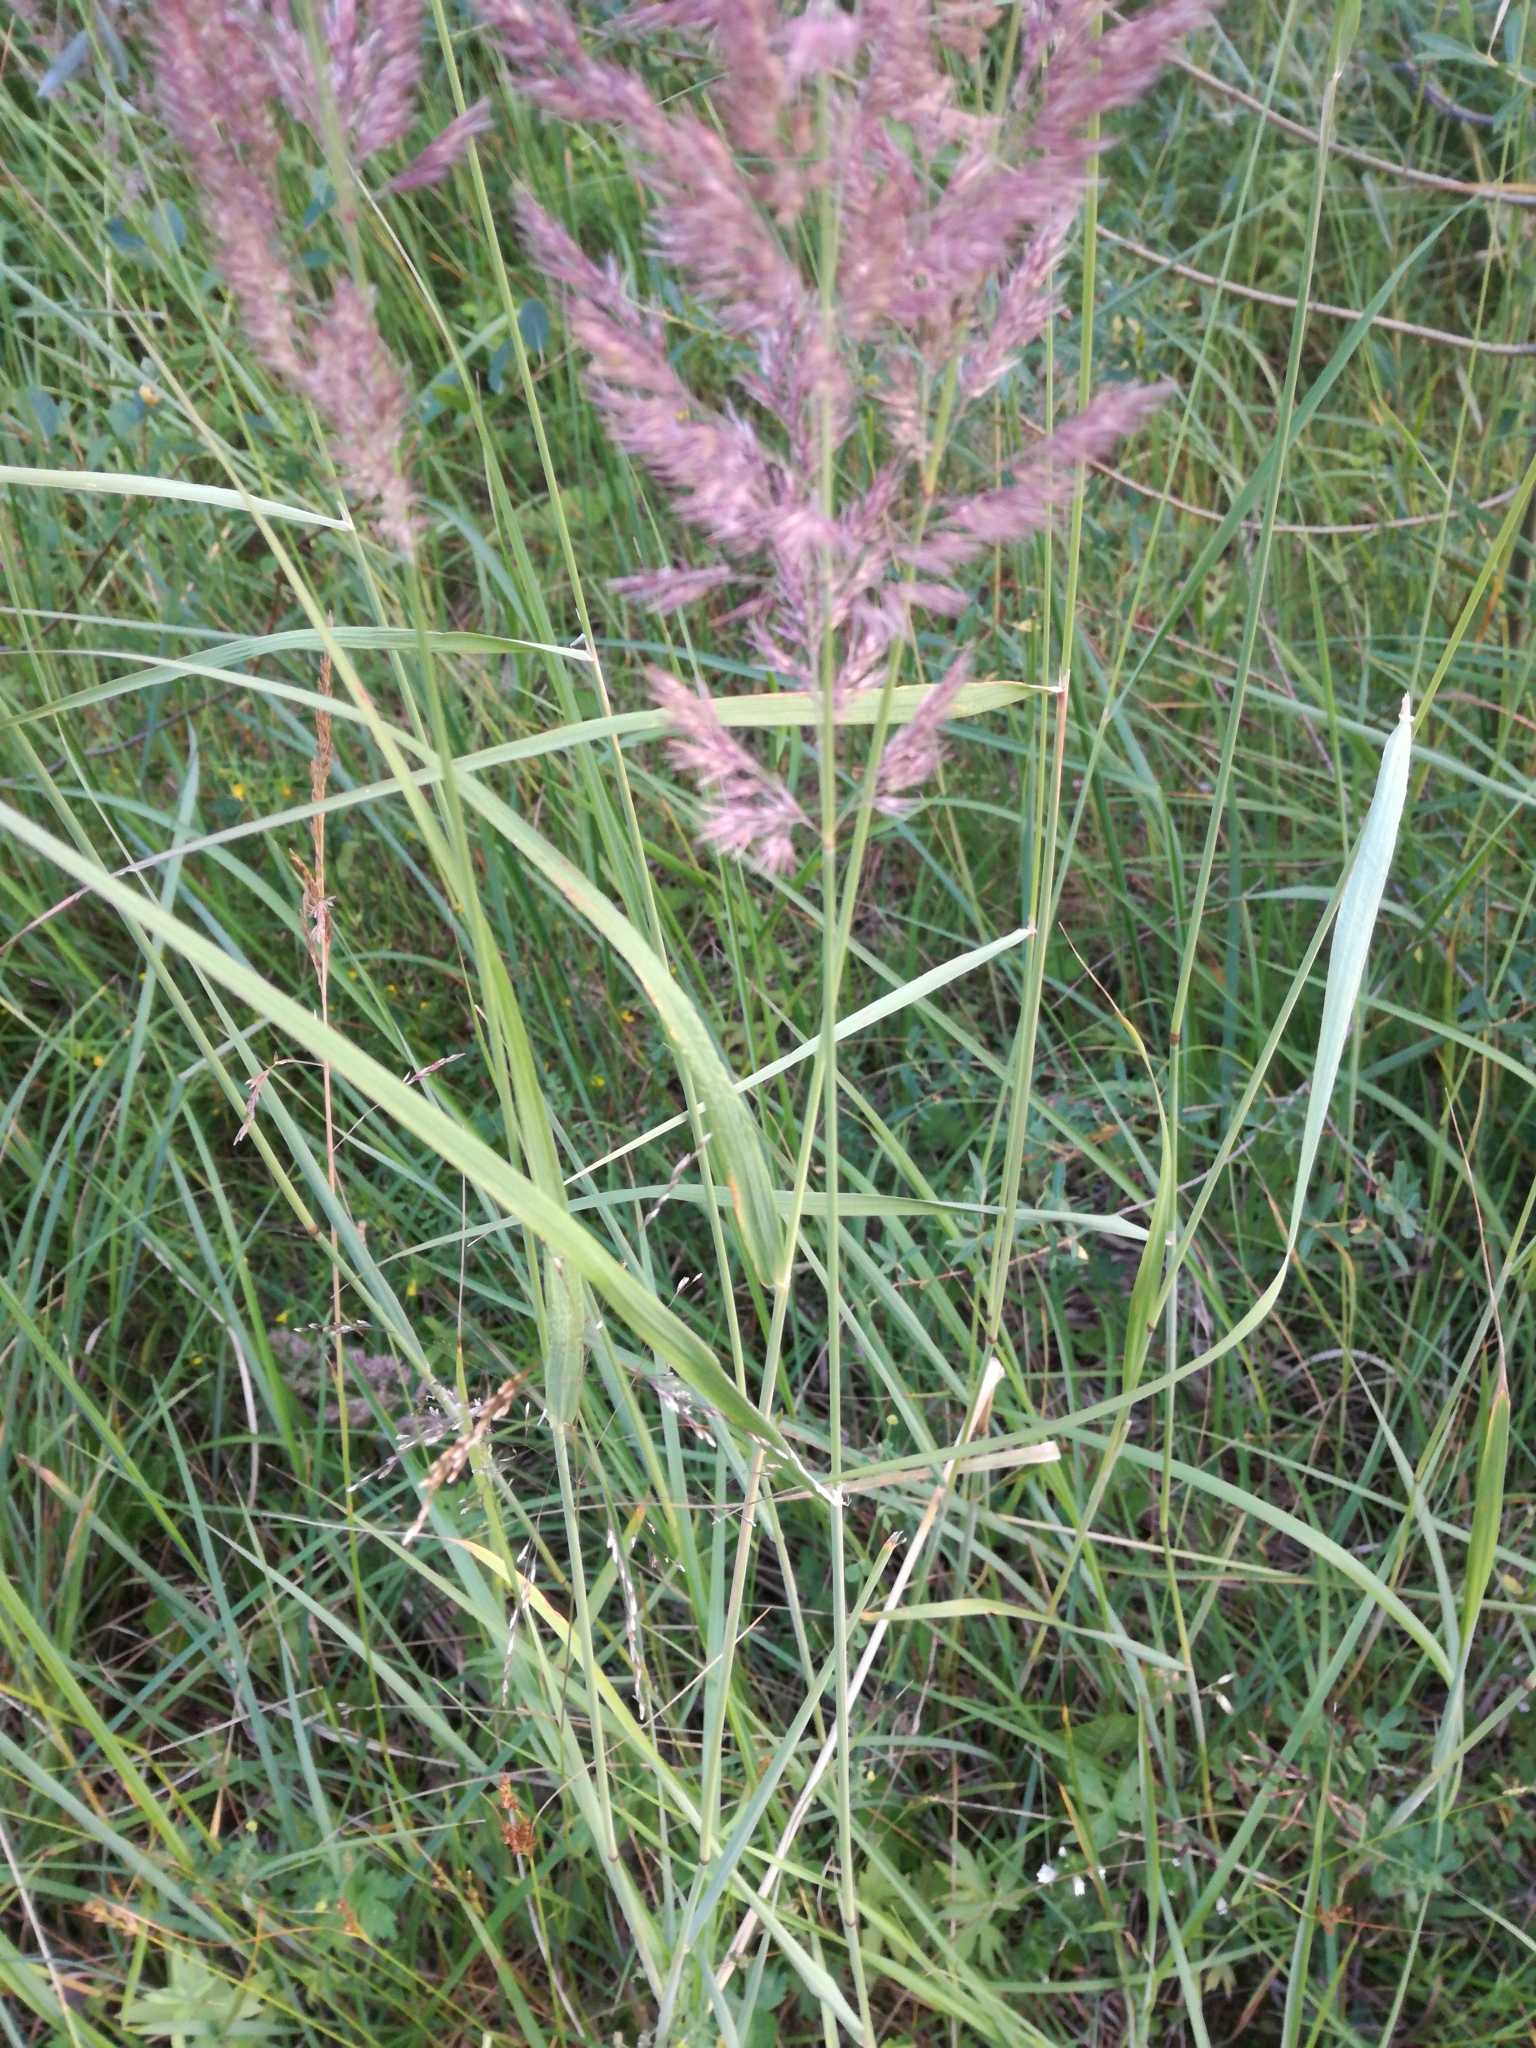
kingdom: Plantae
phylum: Tracheophyta
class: Liliopsida
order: Poales
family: Poaceae
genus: Calamagrostis
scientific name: Calamagrostis epigejos
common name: Wood small-reed
